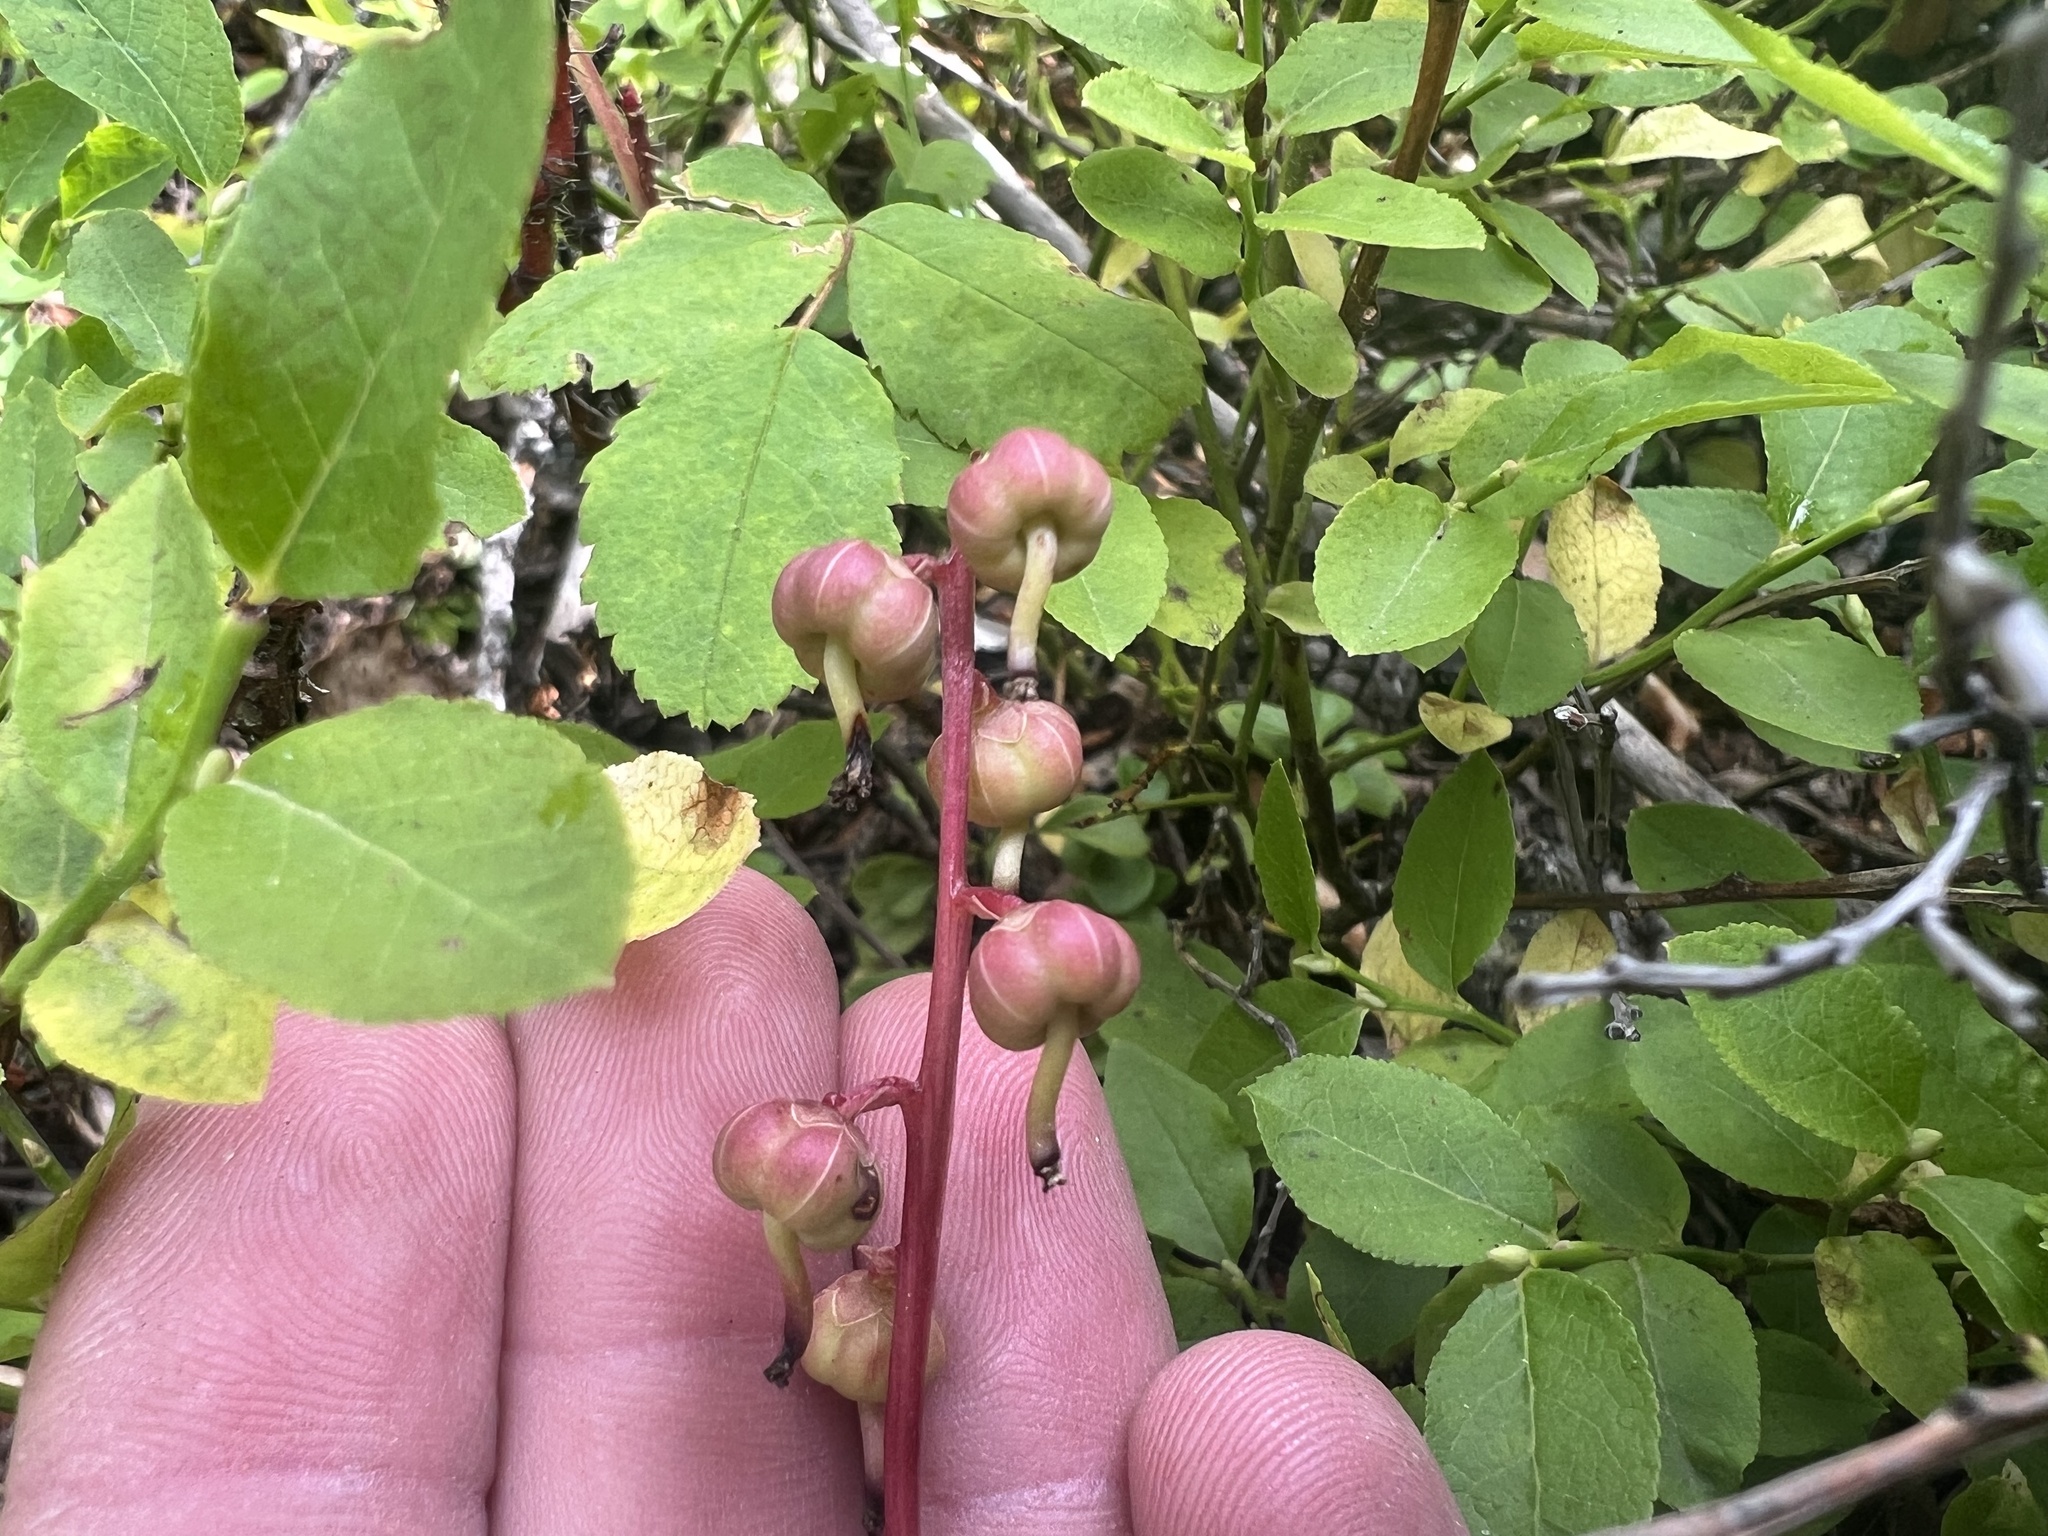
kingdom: Plantae
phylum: Tracheophyta
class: Magnoliopsida
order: Ericales
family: Ericaceae
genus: Pyrola
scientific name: Pyrola chlorantha
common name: Green wintergreen
